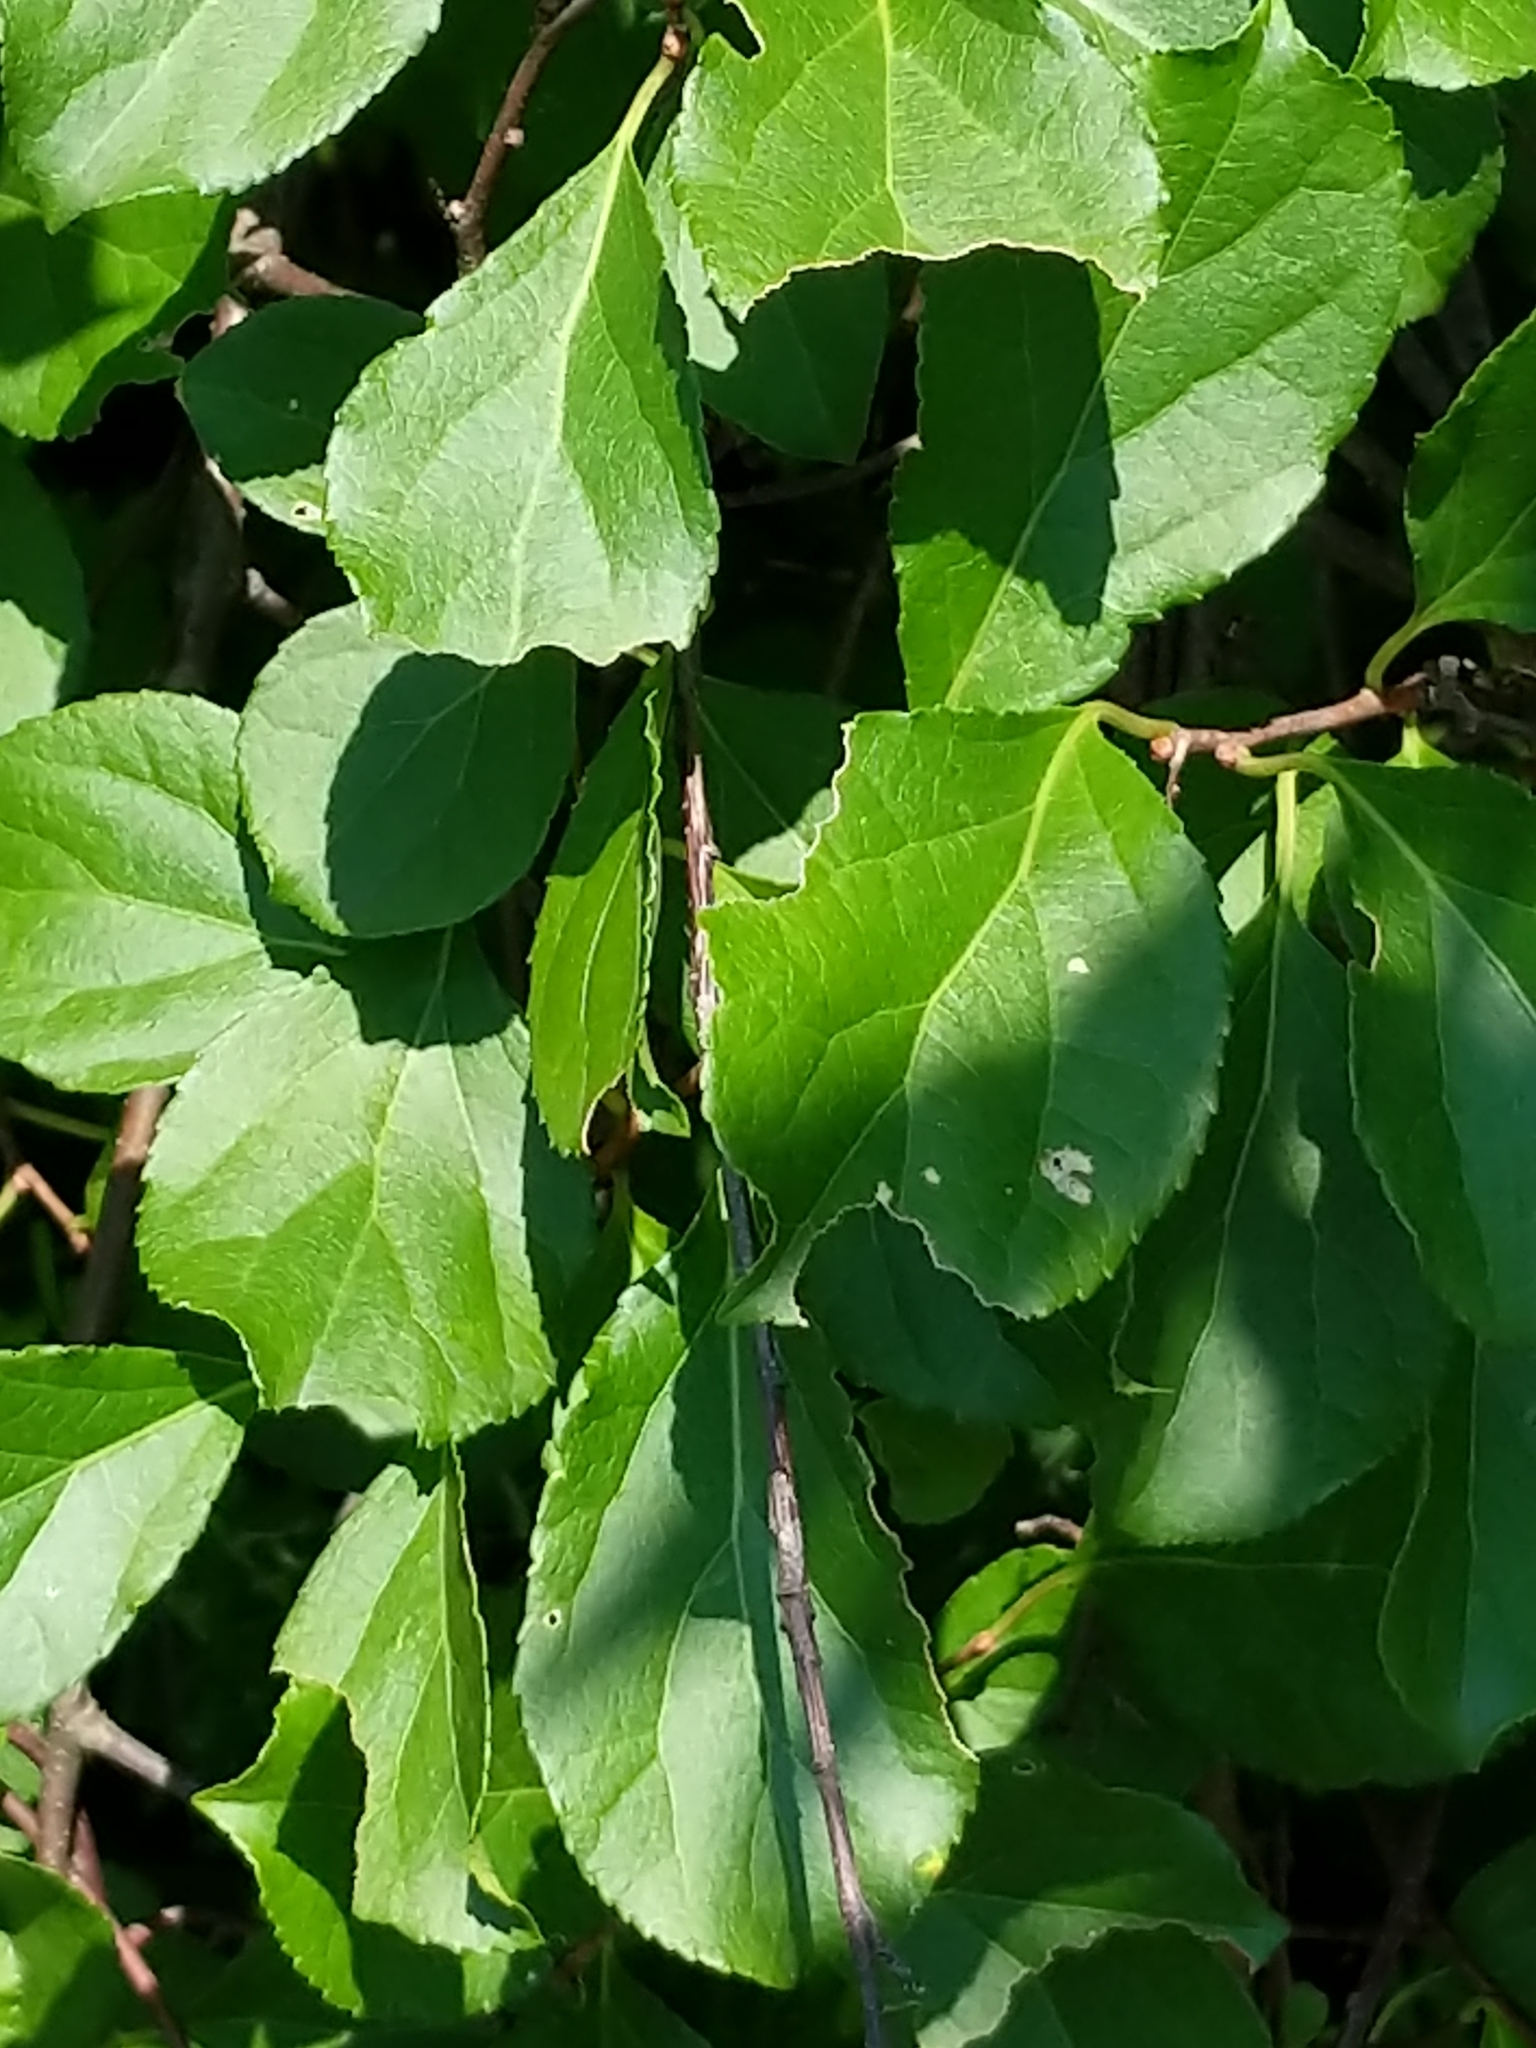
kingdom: Plantae
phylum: Tracheophyta
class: Magnoliopsida
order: Celastrales
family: Celastraceae
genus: Celastrus
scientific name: Celastrus orbiculatus
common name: Oriental bittersweet
